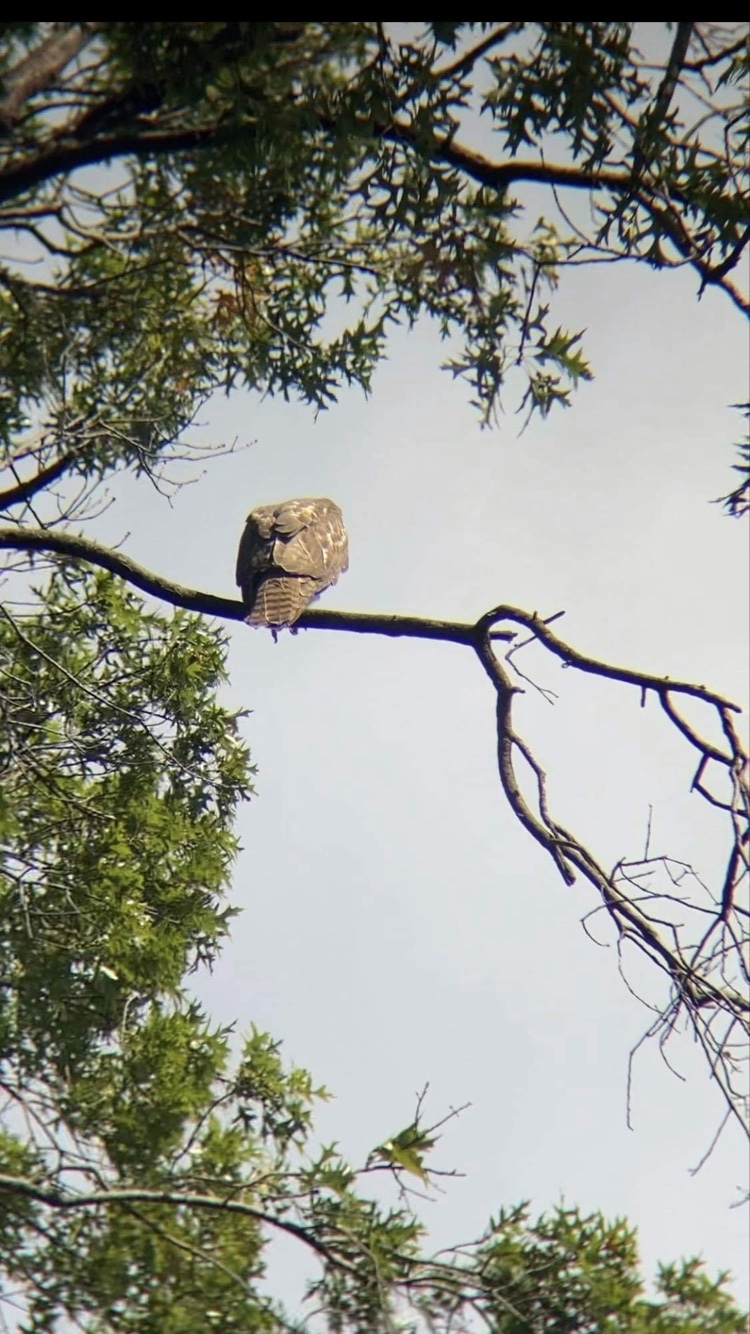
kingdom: Animalia
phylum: Chordata
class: Aves
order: Accipitriformes
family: Accipitridae
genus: Buteo
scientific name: Buteo jamaicensis
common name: Red-tailed hawk
